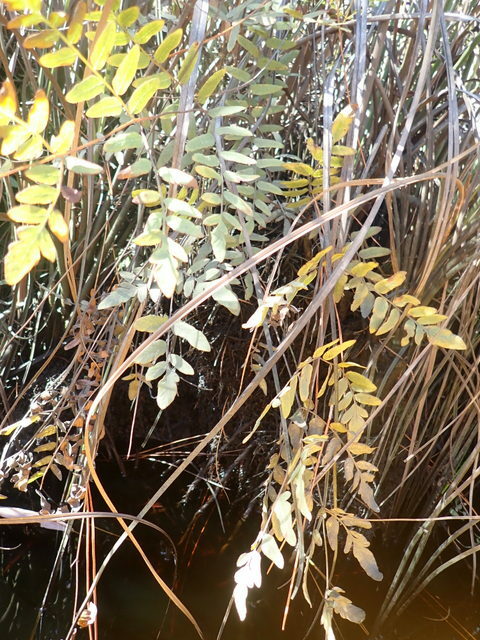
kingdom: Plantae
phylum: Tracheophyta
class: Polypodiopsida
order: Osmundales
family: Osmundaceae
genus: Osmunda
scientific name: Osmunda spectabilis
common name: American royal fern
